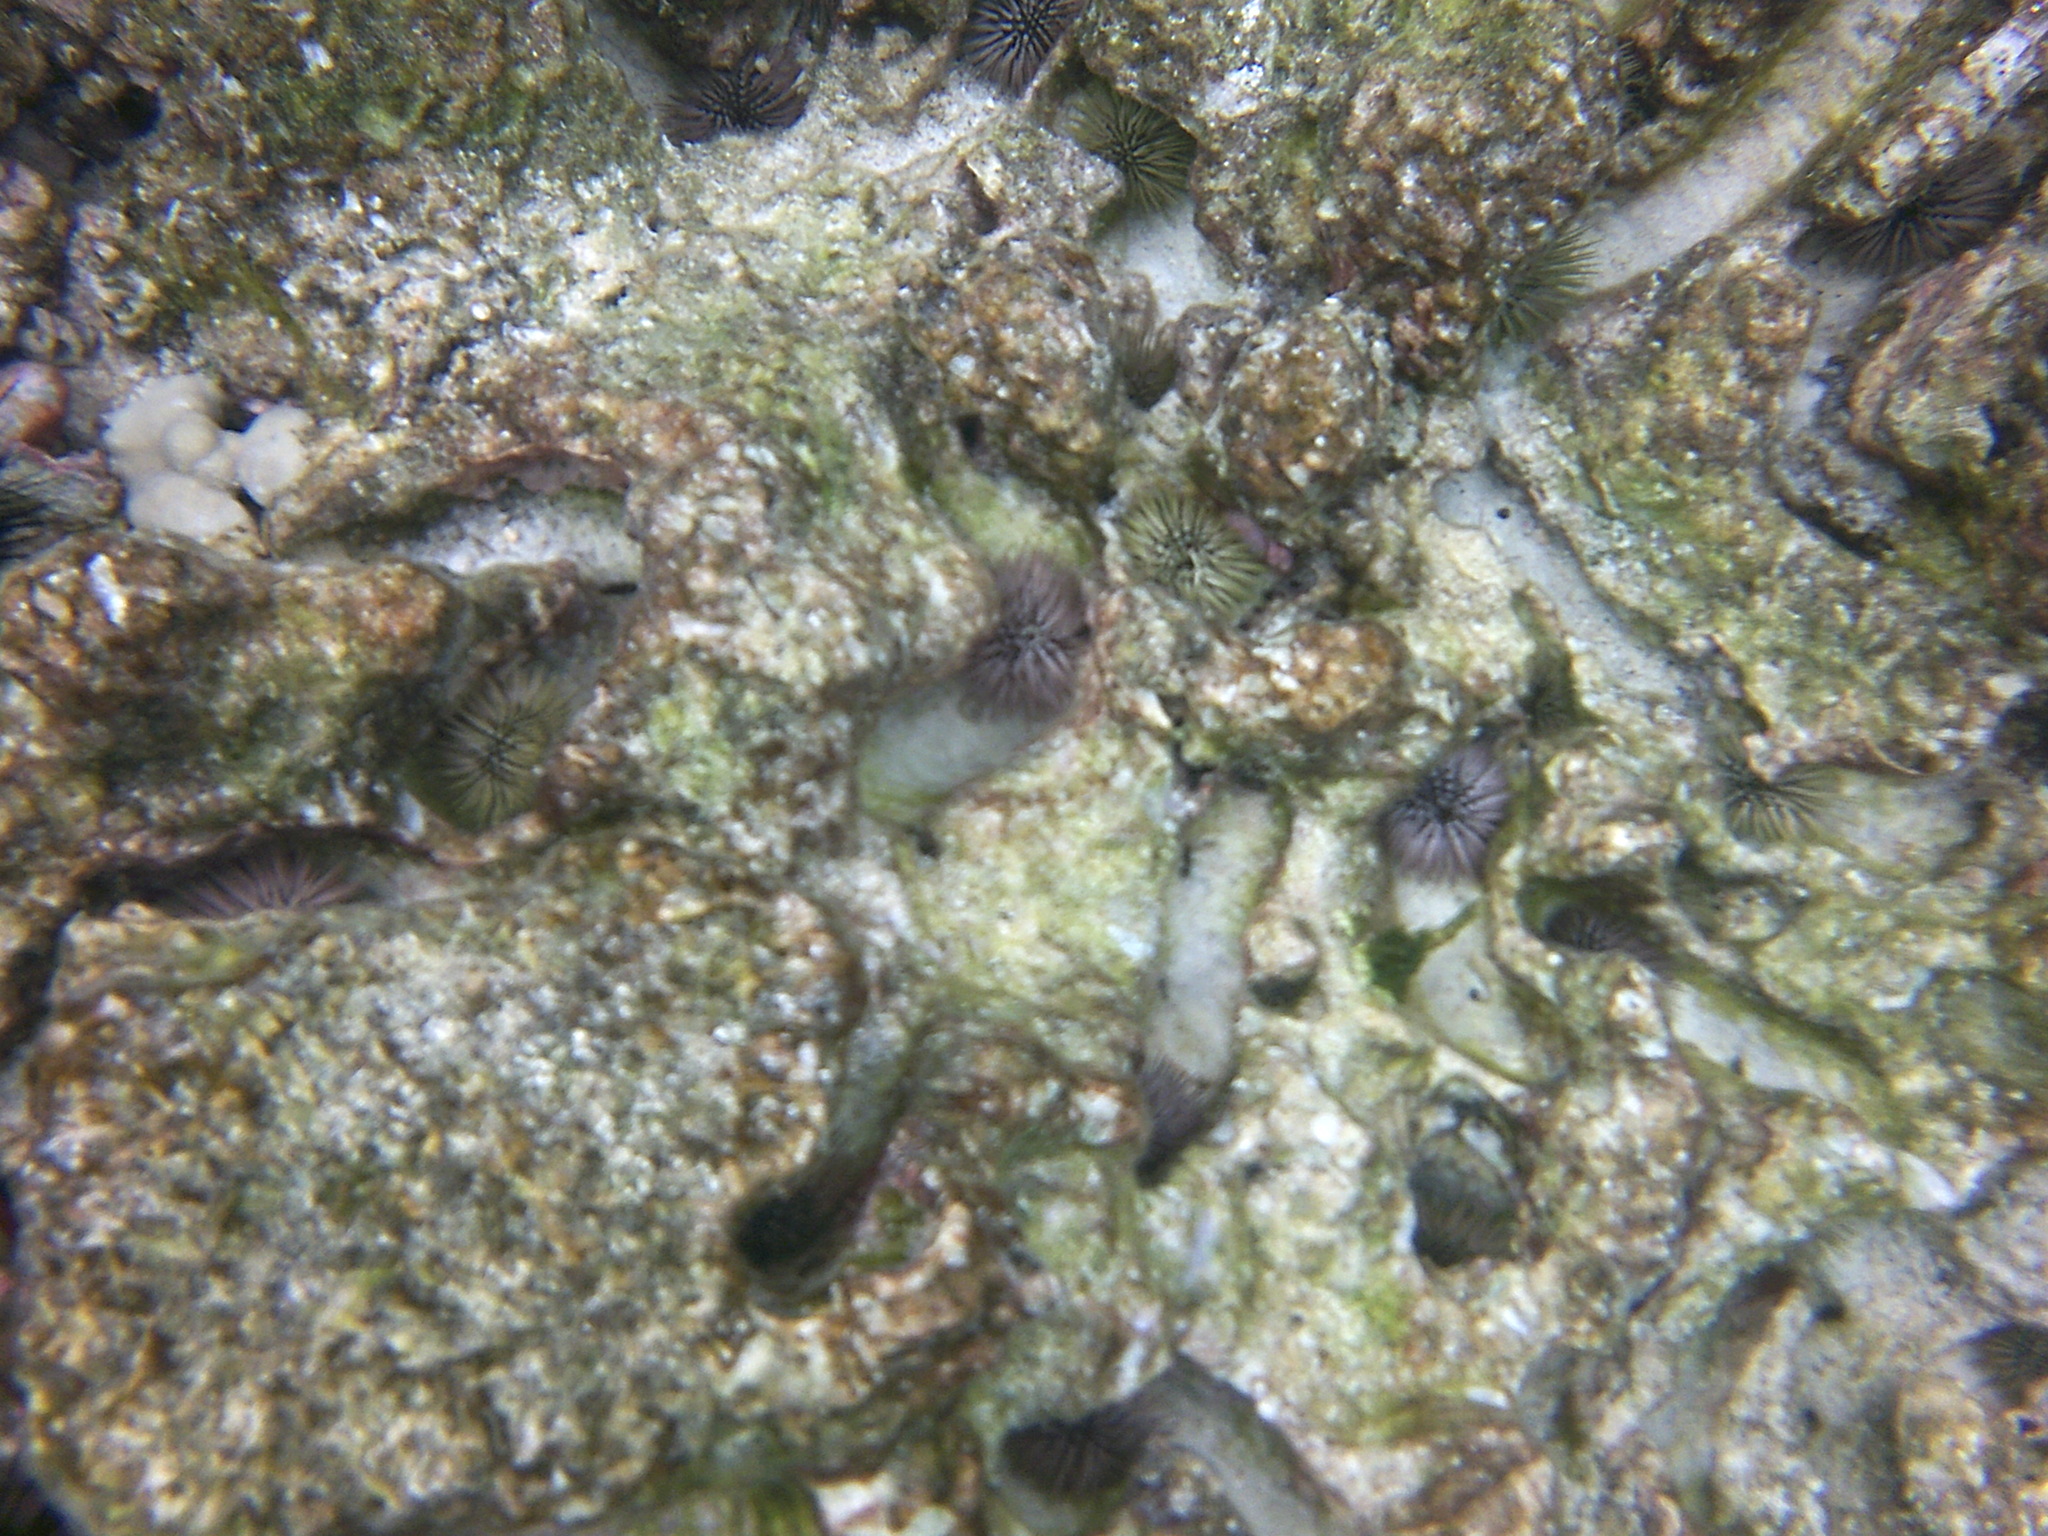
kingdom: Animalia
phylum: Echinodermata
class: Echinoidea
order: Camarodonta
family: Echinometridae
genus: Echinometra
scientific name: Echinometra mathaei
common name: Rock-boring urchin
